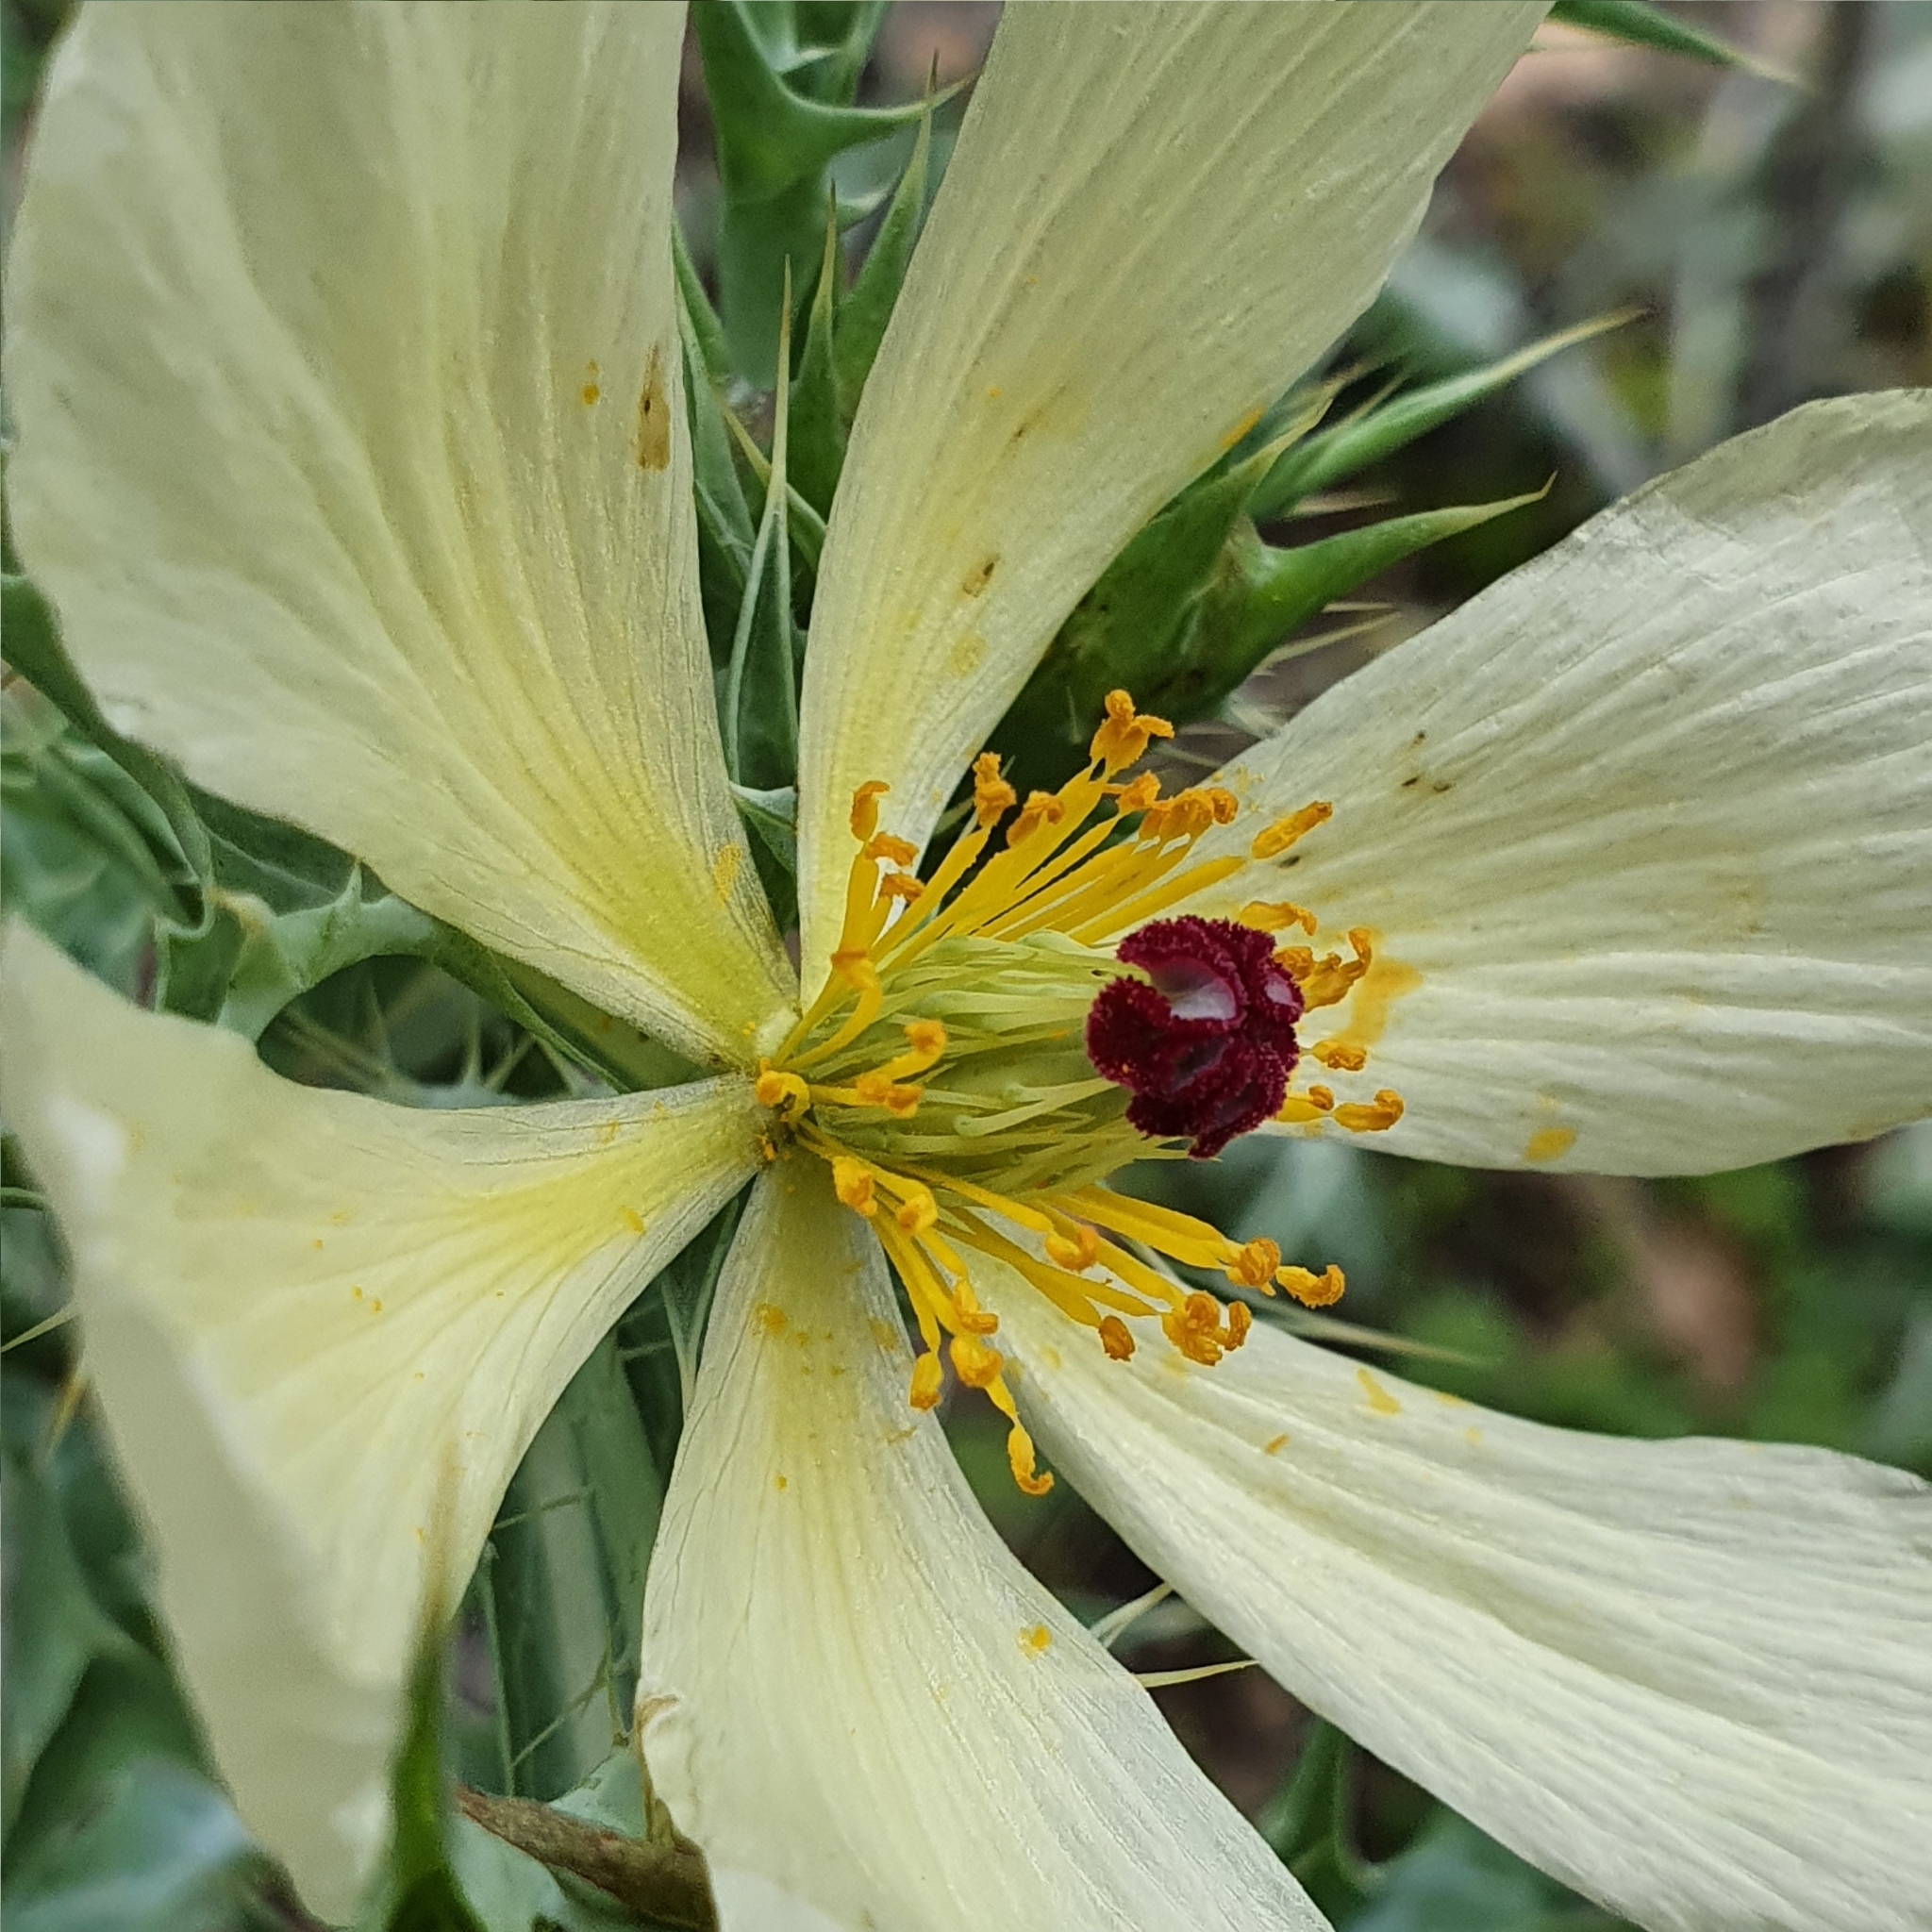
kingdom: Plantae
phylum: Tracheophyta
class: Magnoliopsida
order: Ranunculales
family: Papaveraceae
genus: Argemone
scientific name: Argemone ochroleuca
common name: White-flower mexican-poppy
